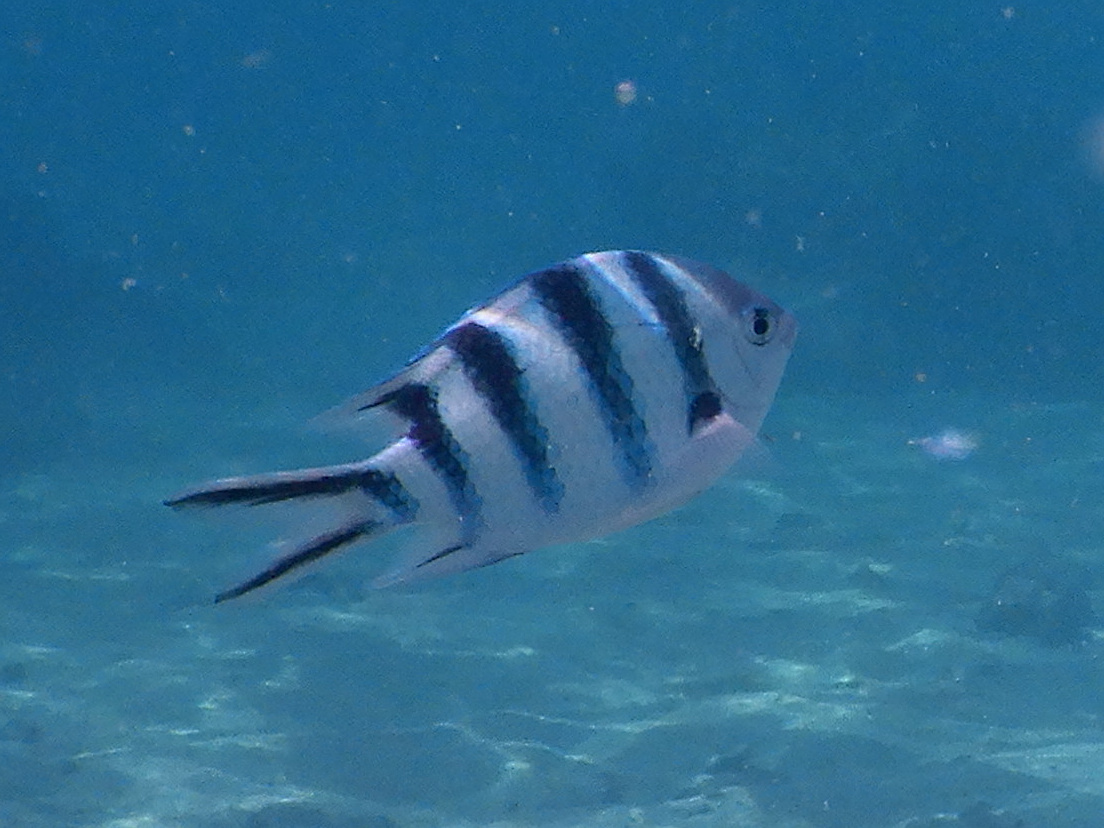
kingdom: Animalia
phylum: Chordata
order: Perciformes
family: Pomacentridae
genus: Abudefduf
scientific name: Abudefduf sexfasciatus
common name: Scissortail sergeant
